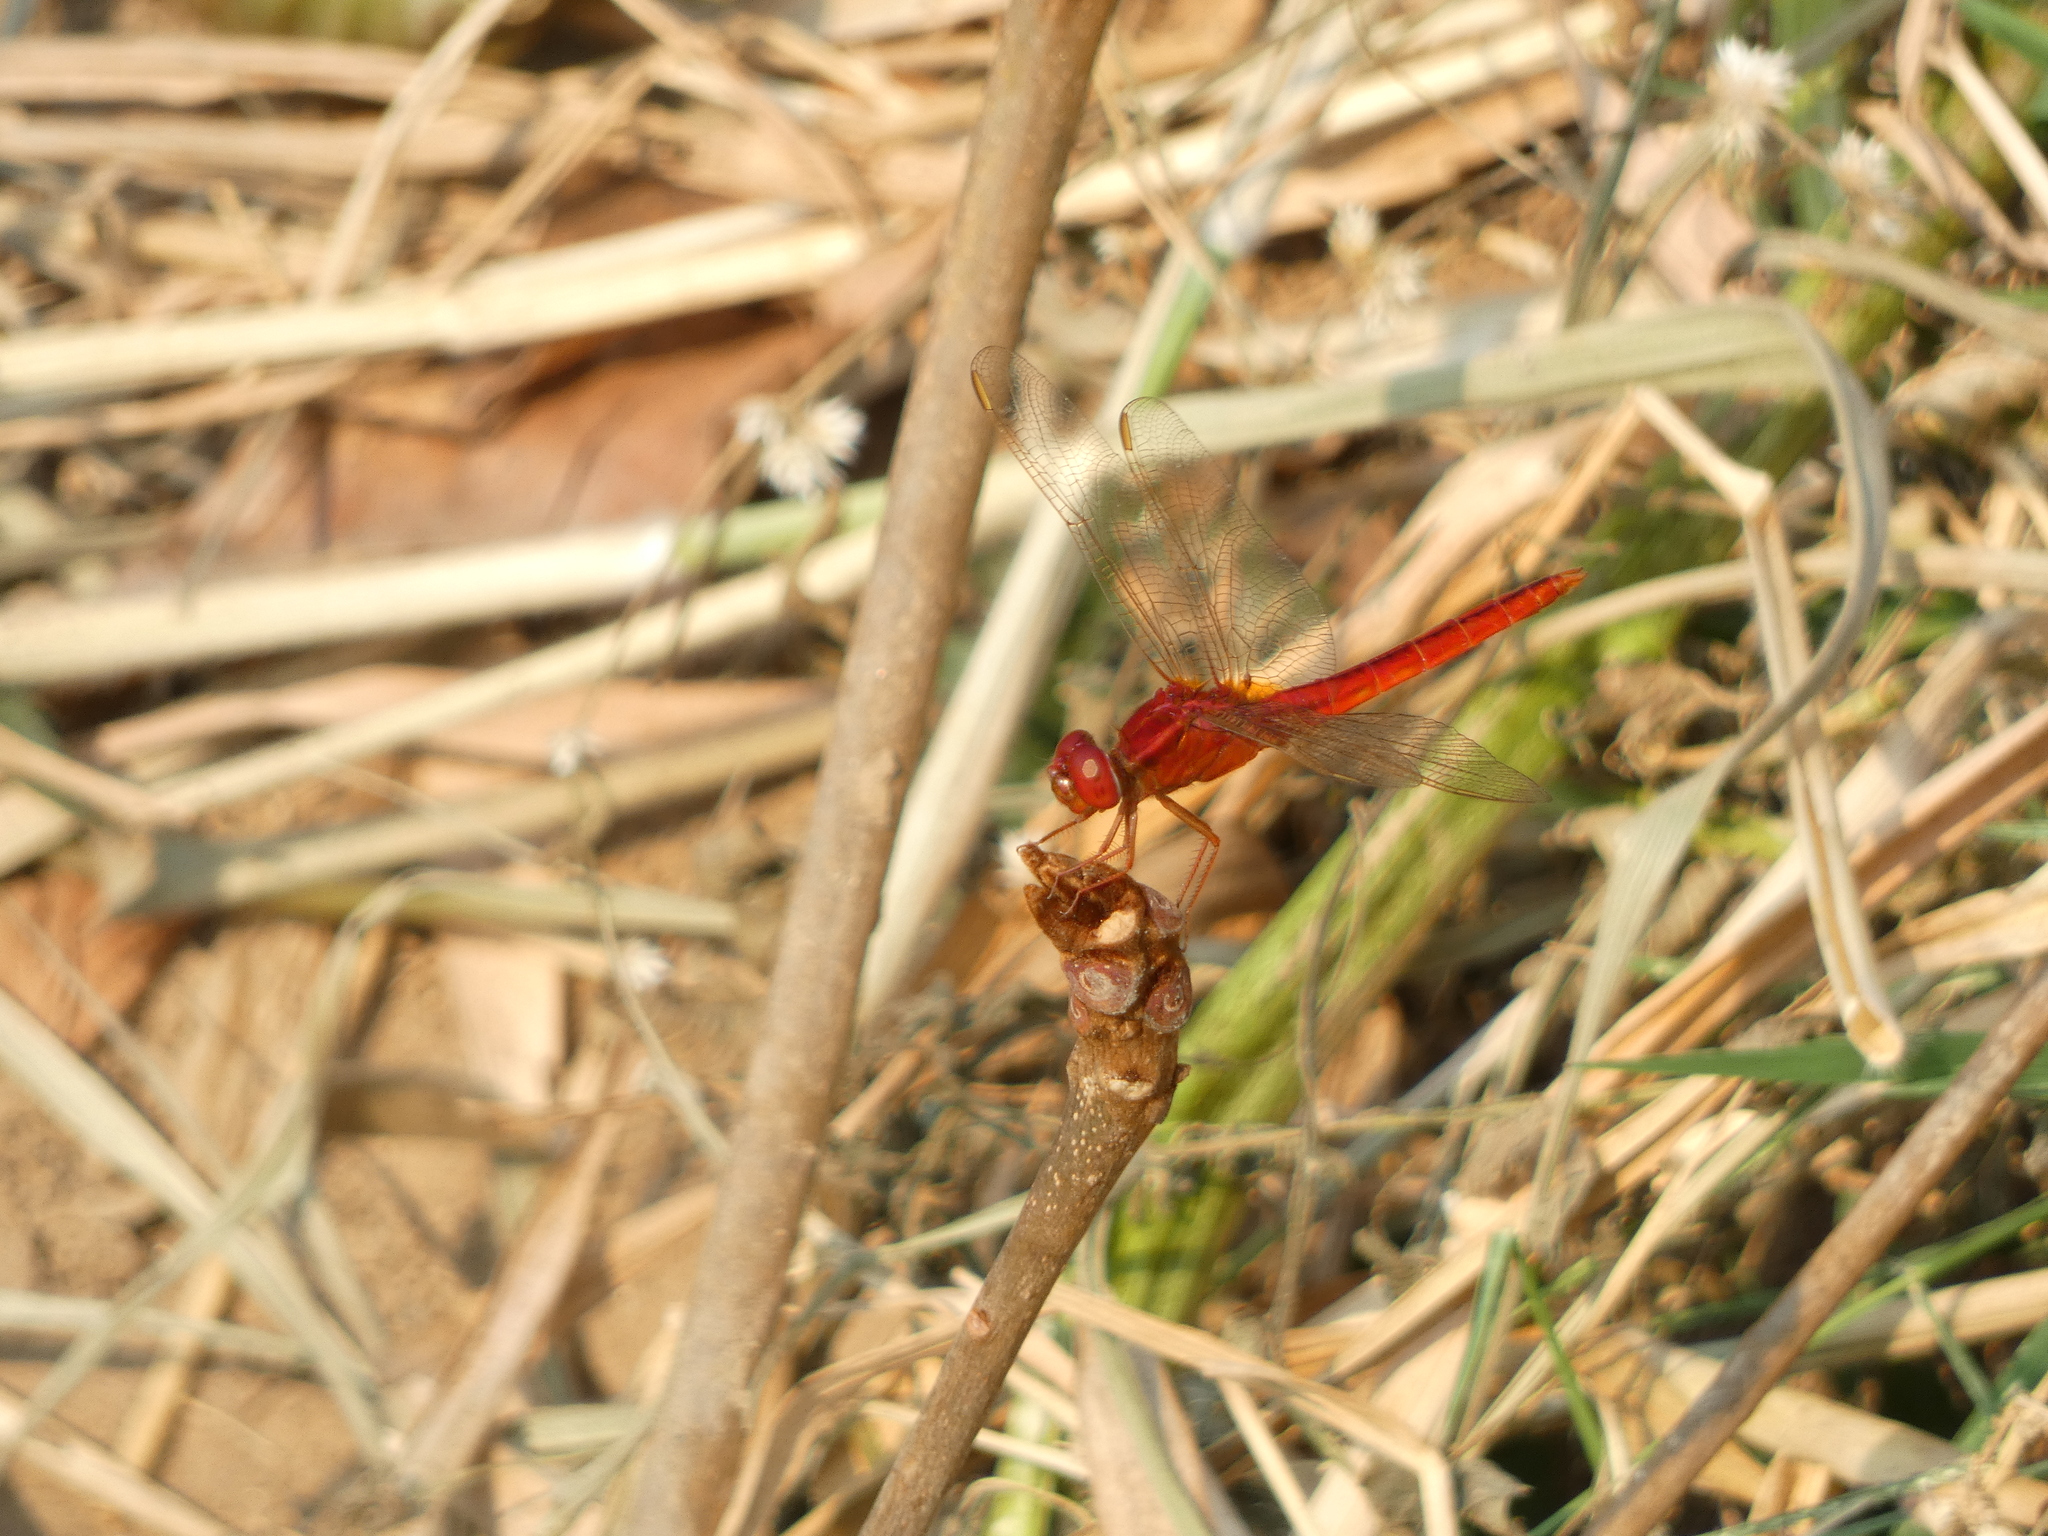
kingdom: Animalia
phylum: Arthropoda
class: Insecta
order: Odonata
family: Libellulidae
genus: Crocothemis
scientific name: Crocothemis servilia
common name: Scarlet skimmer
